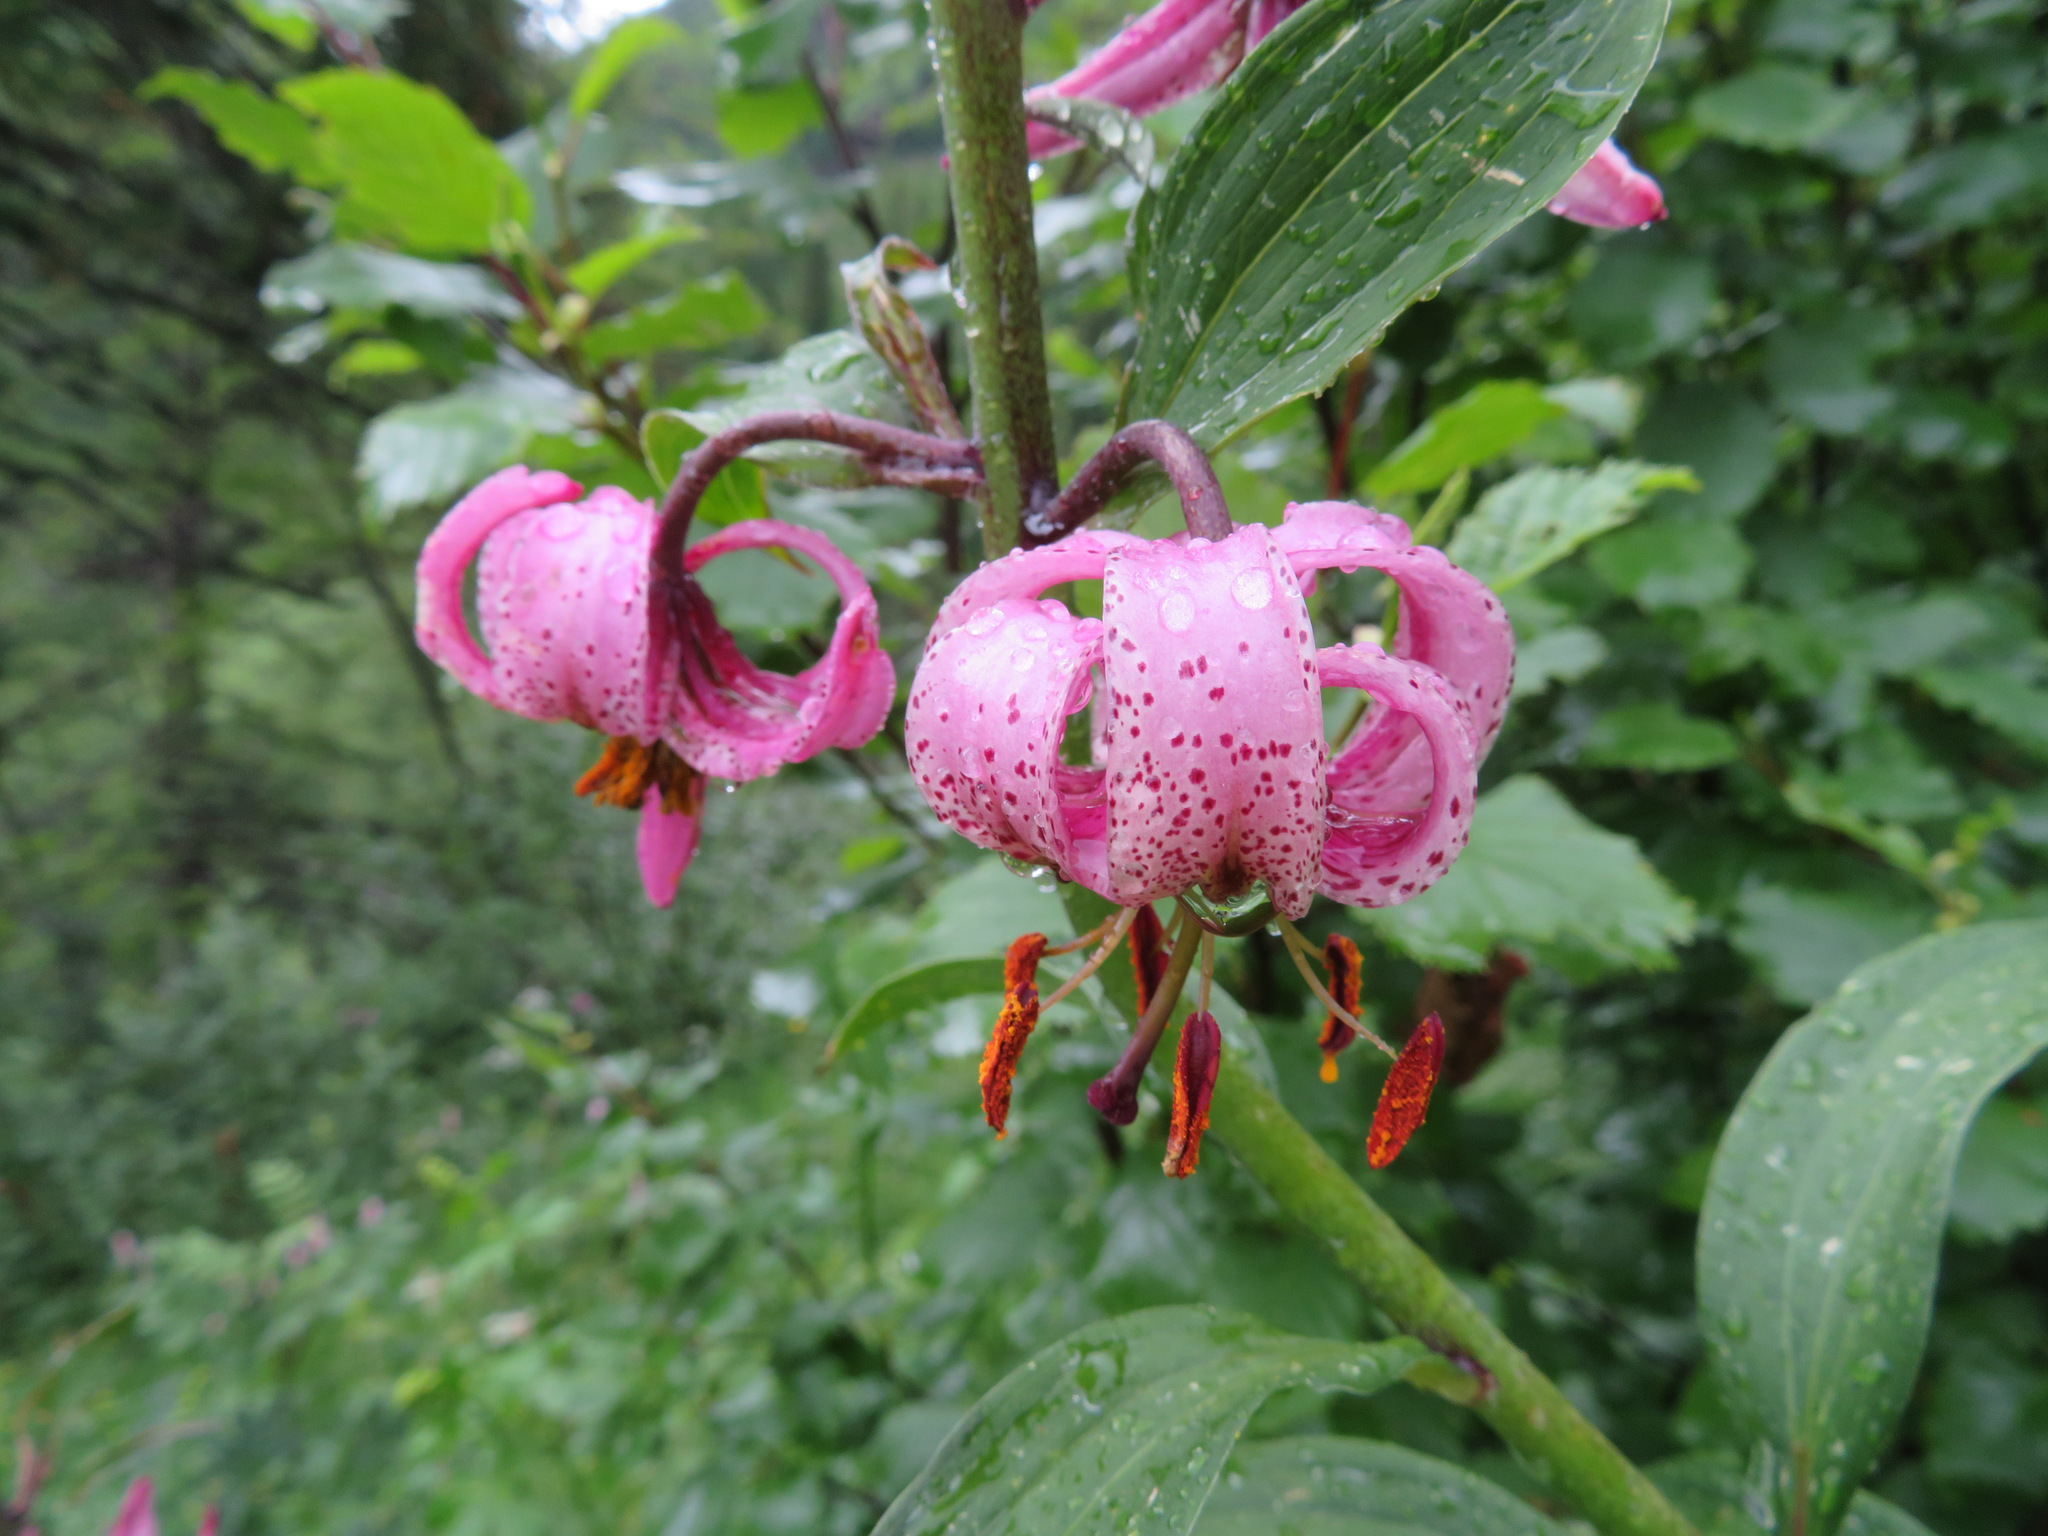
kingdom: Plantae
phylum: Tracheophyta
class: Liliopsida
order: Liliales
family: Liliaceae
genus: Lilium
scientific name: Lilium martagon
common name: Martagon lily
